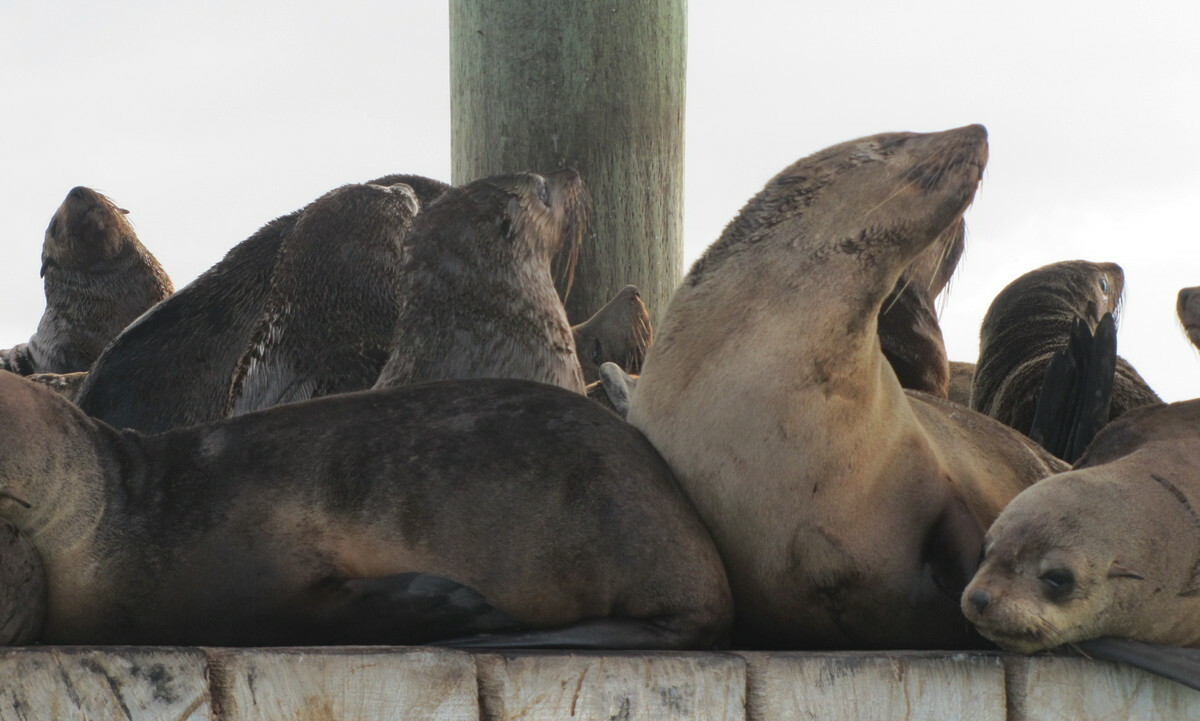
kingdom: Animalia
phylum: Chordata
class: Mammalia
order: Carnivora
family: Otariidae
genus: Arctocephalus
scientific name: Arctocephalus pusillus
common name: Brown fur seal
